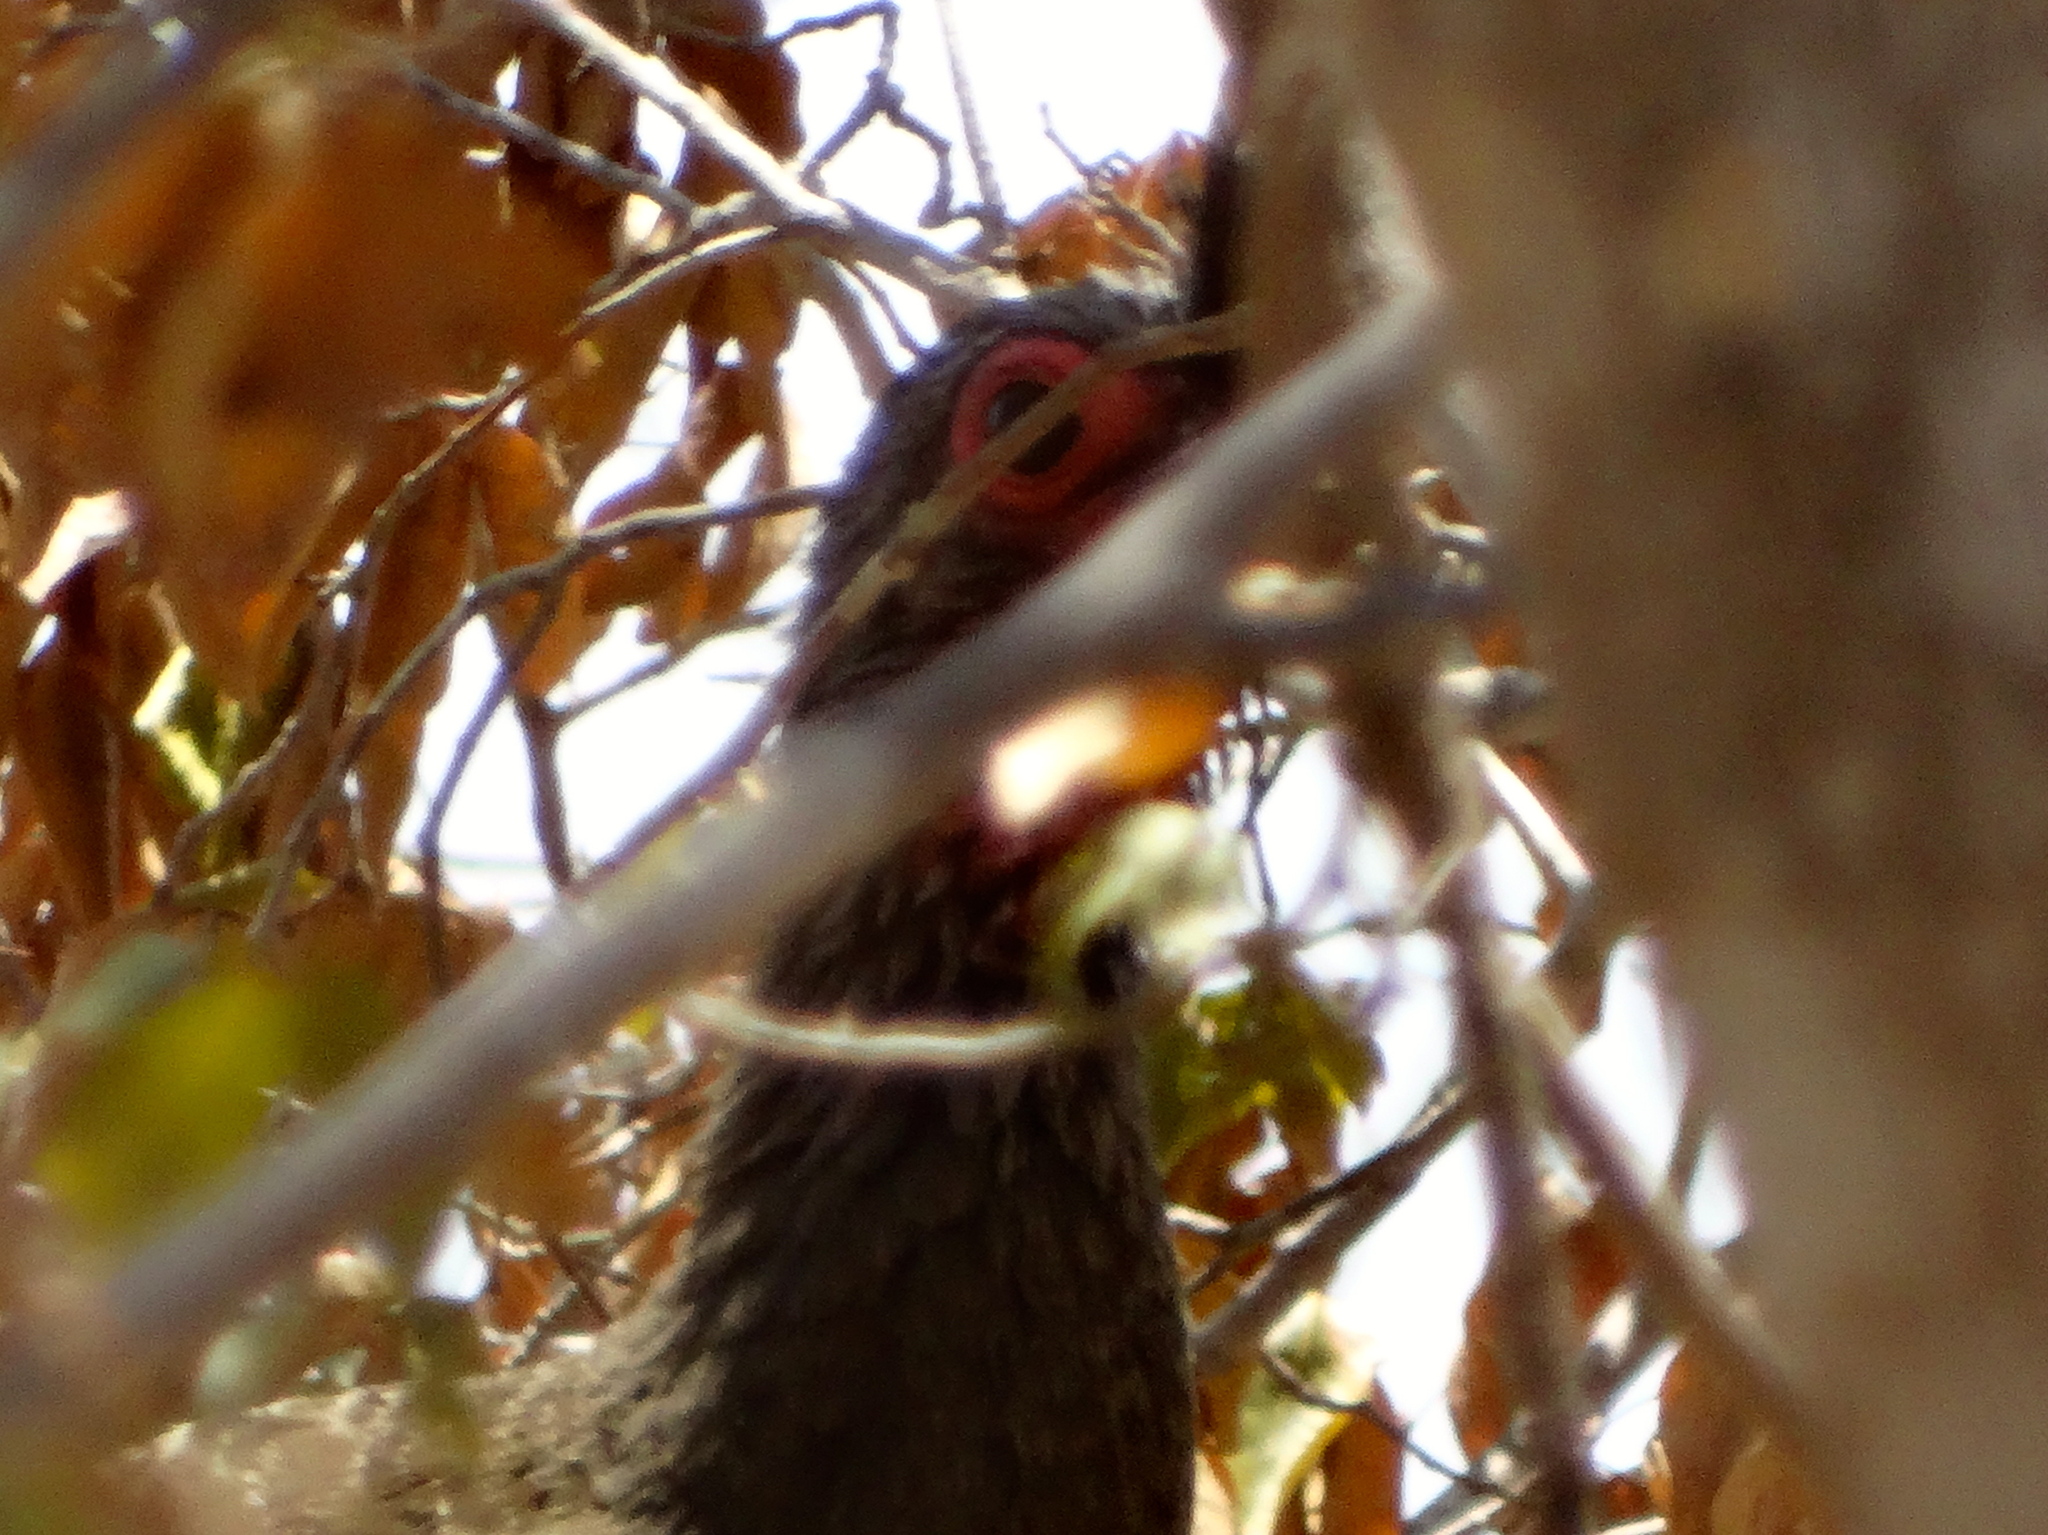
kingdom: Animalia
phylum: Chordata
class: Aves
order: Galliformes
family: Cracidae
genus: Ortalis
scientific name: Ortalis wagleri
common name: Rufous-bellied chachalaca
